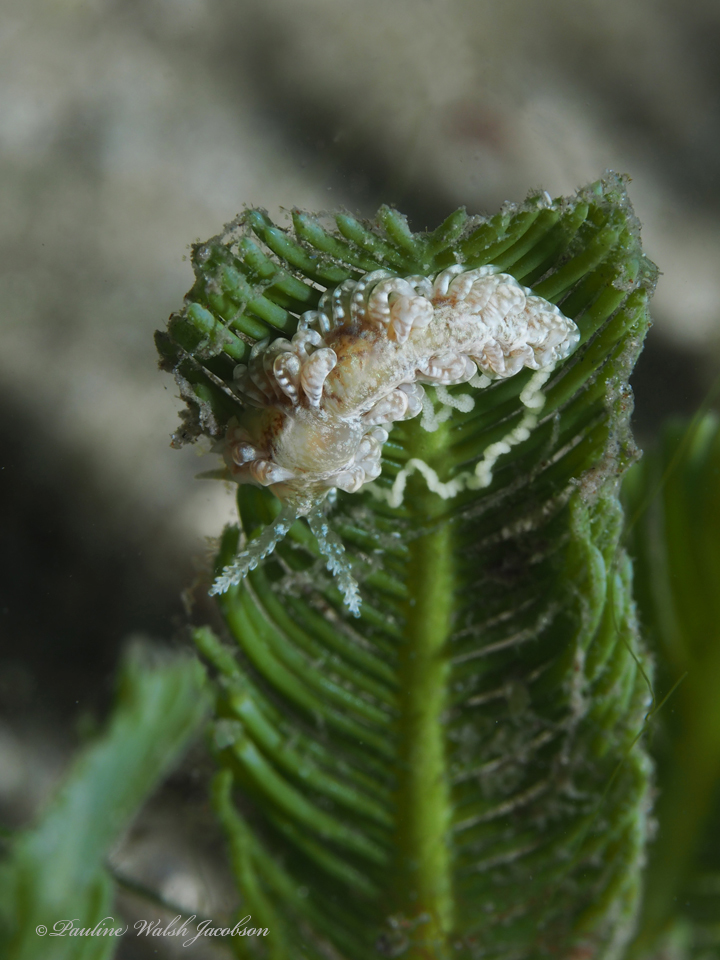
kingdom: Animalia
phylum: Mollusca
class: Gastropoda
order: Nudibranchia
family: Aeolidiidae
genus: Spurilla
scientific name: Spurilla sargassicola
